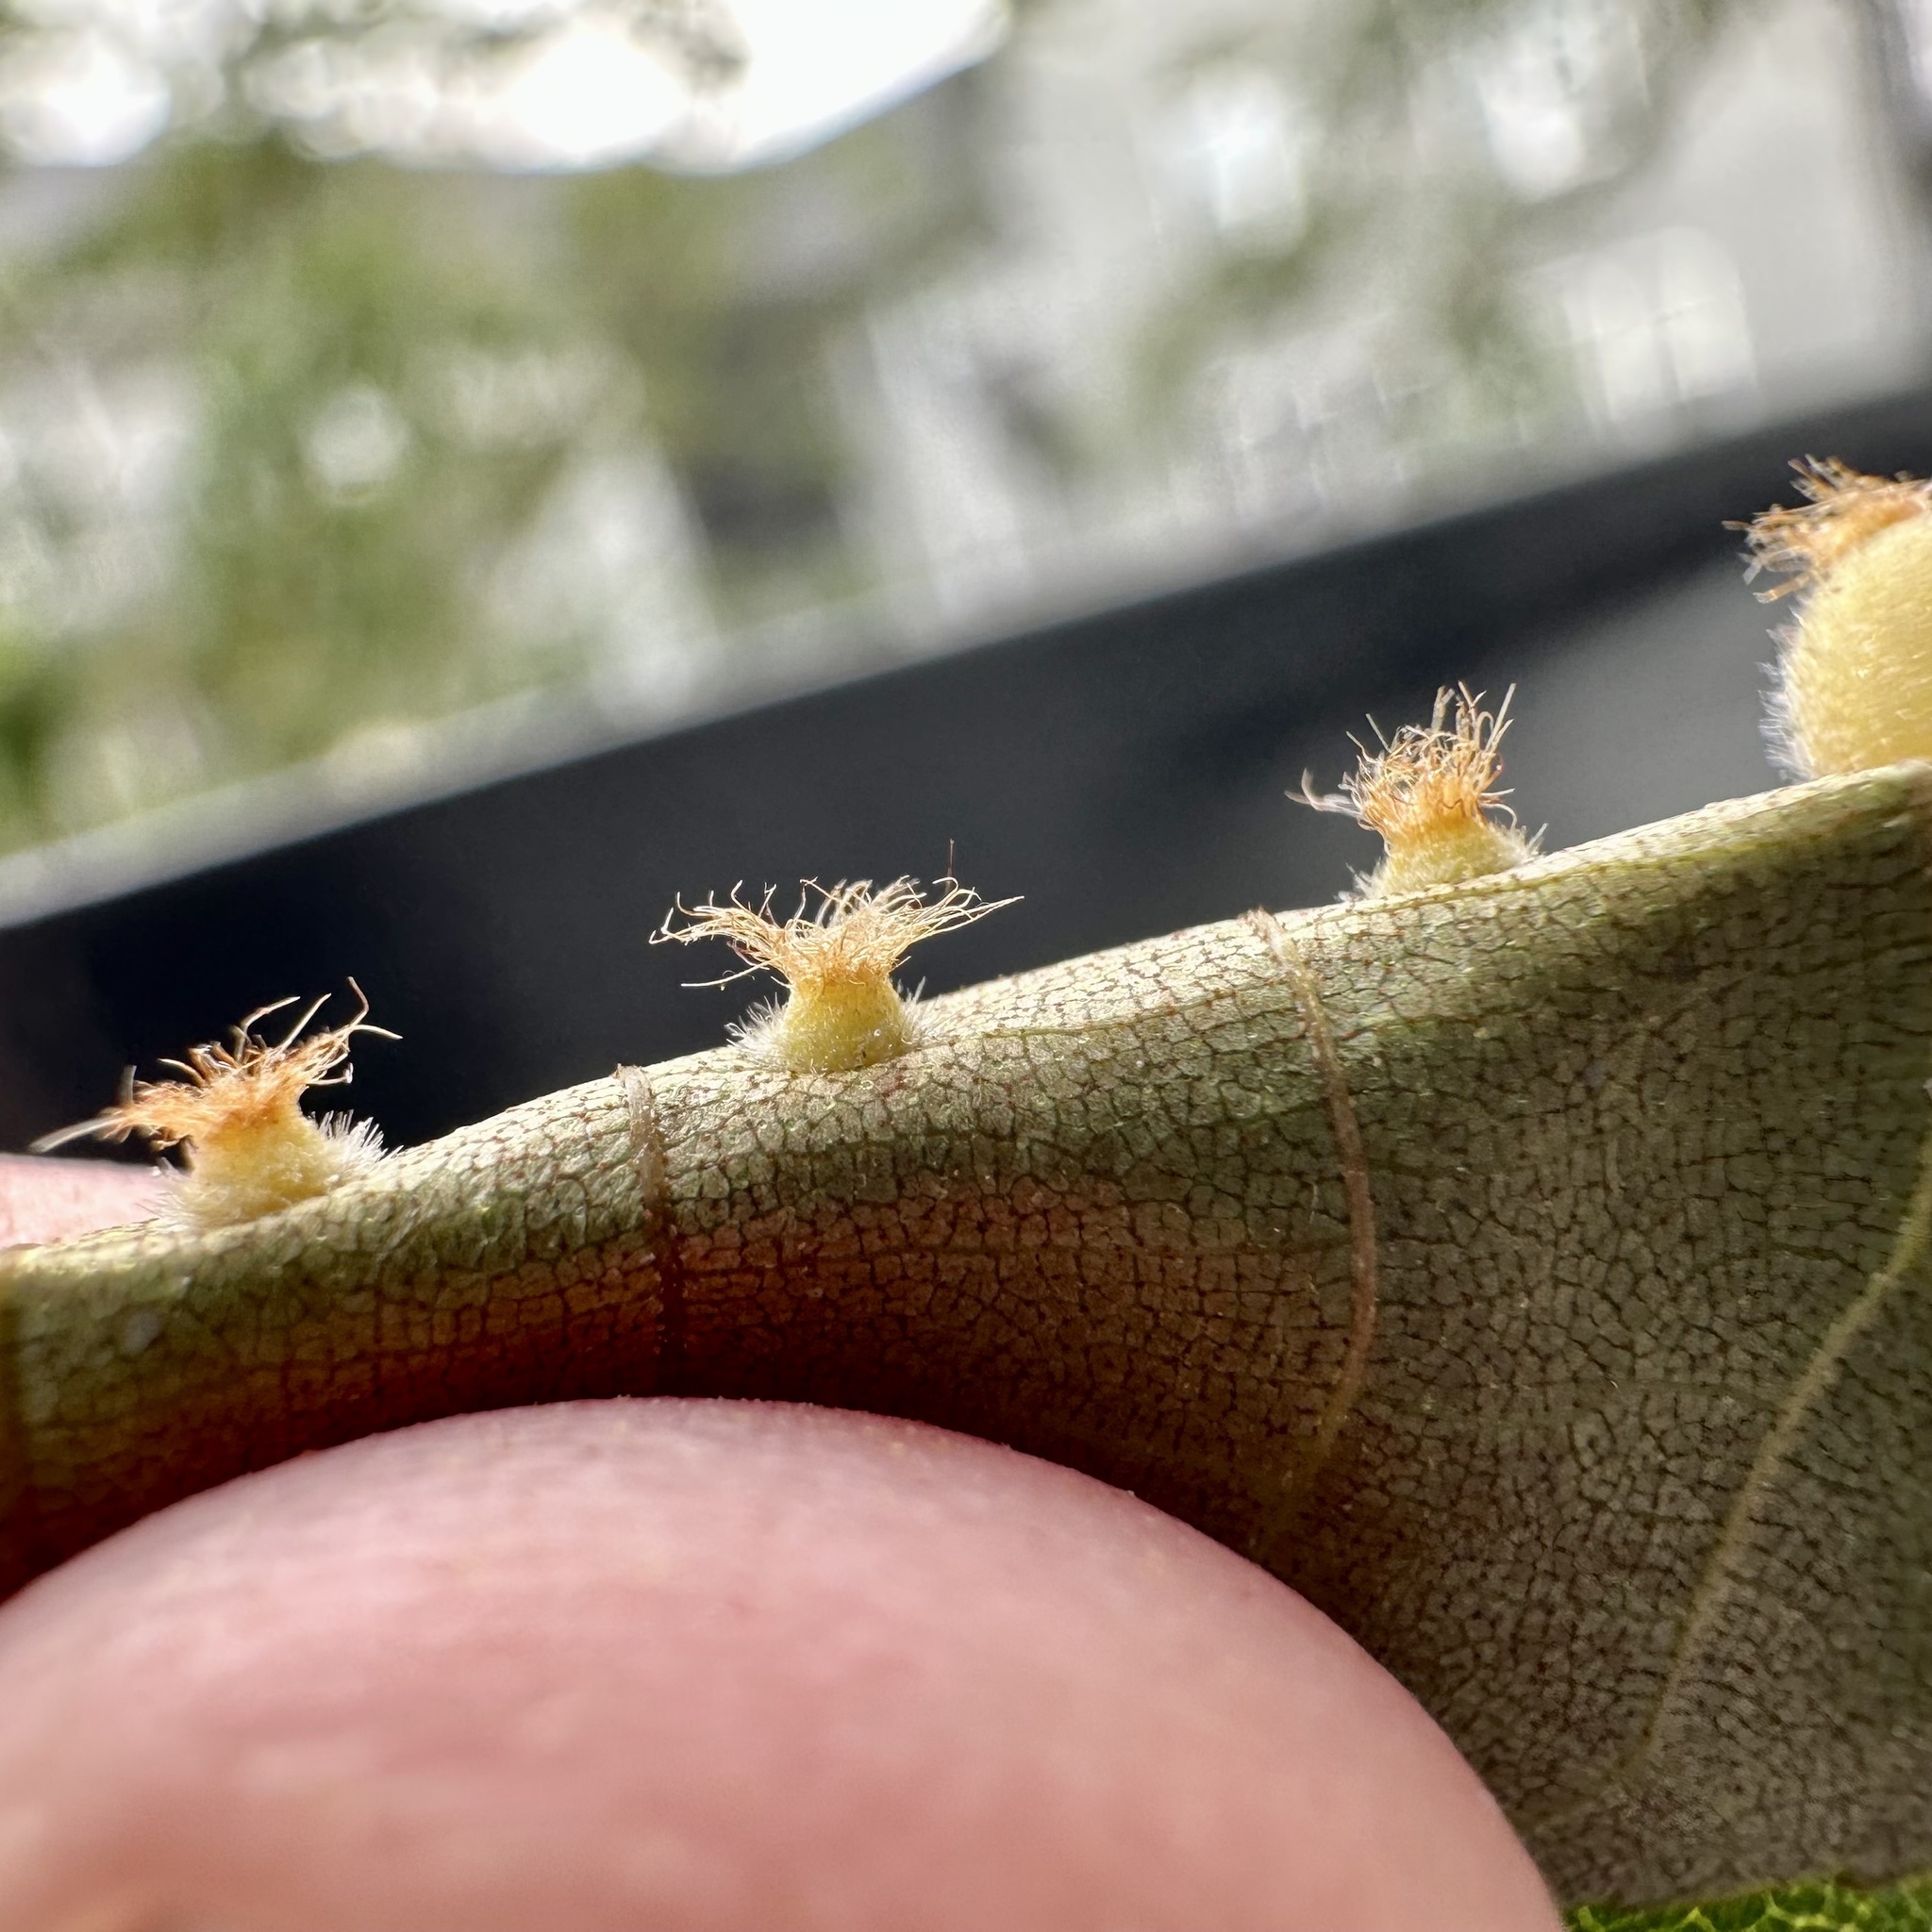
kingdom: Animalia
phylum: Arthropoda
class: Insecta
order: Diptera
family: Cecidomyiidae
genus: Caryomyia
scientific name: Caryomyia hirtidolium
